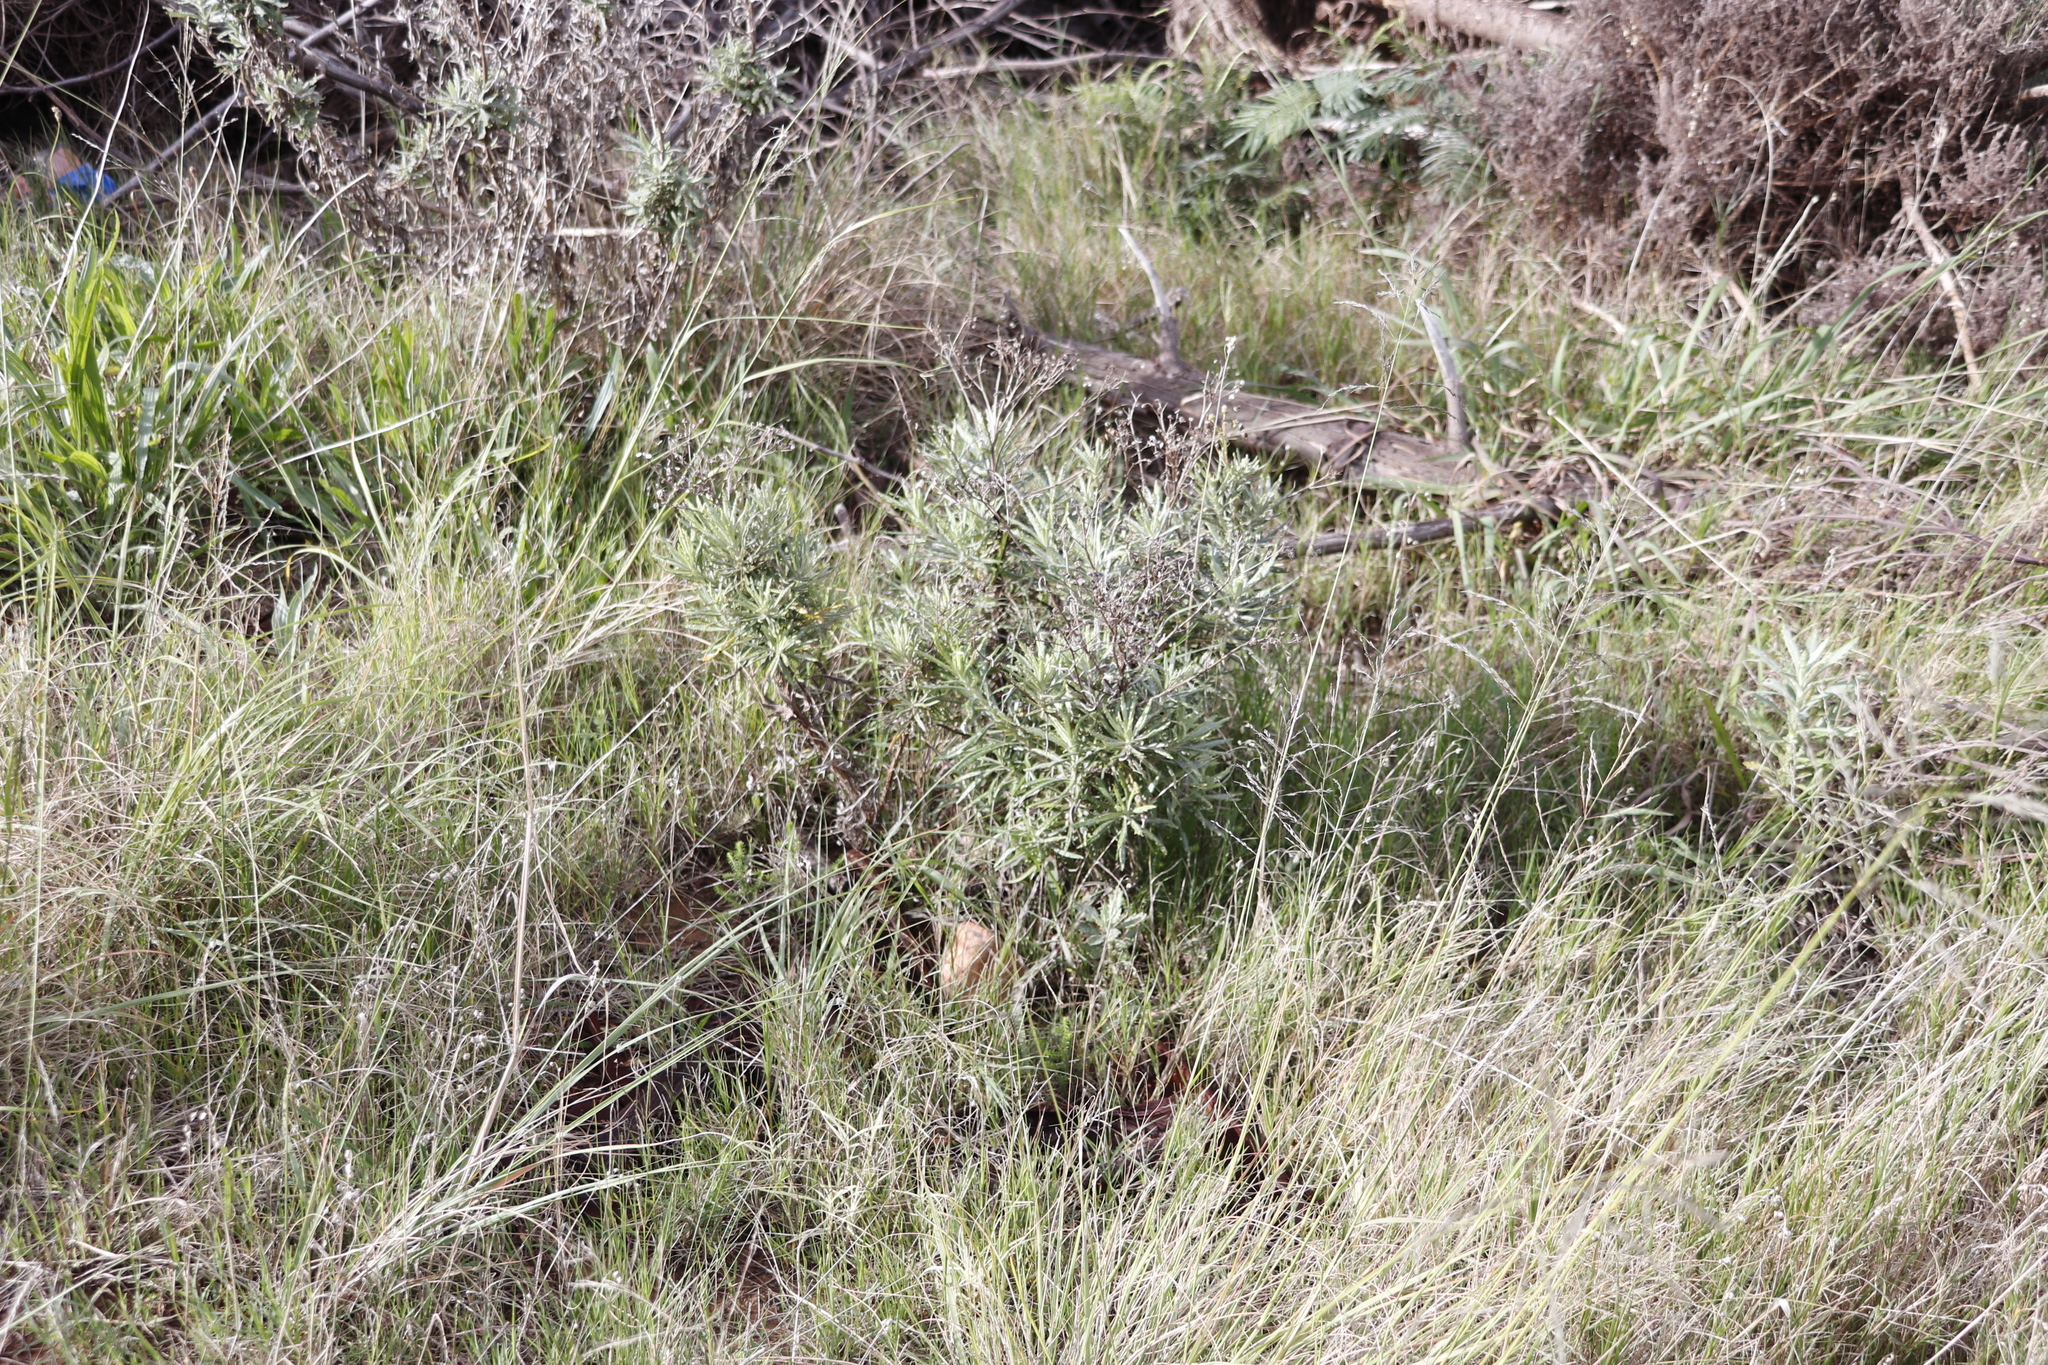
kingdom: Plantae
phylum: Tracheophyta
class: Magnoliopsida
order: Asterales
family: Asteraceae
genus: Senecio
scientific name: Senecio pterophorus
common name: Shoddy ragwort
